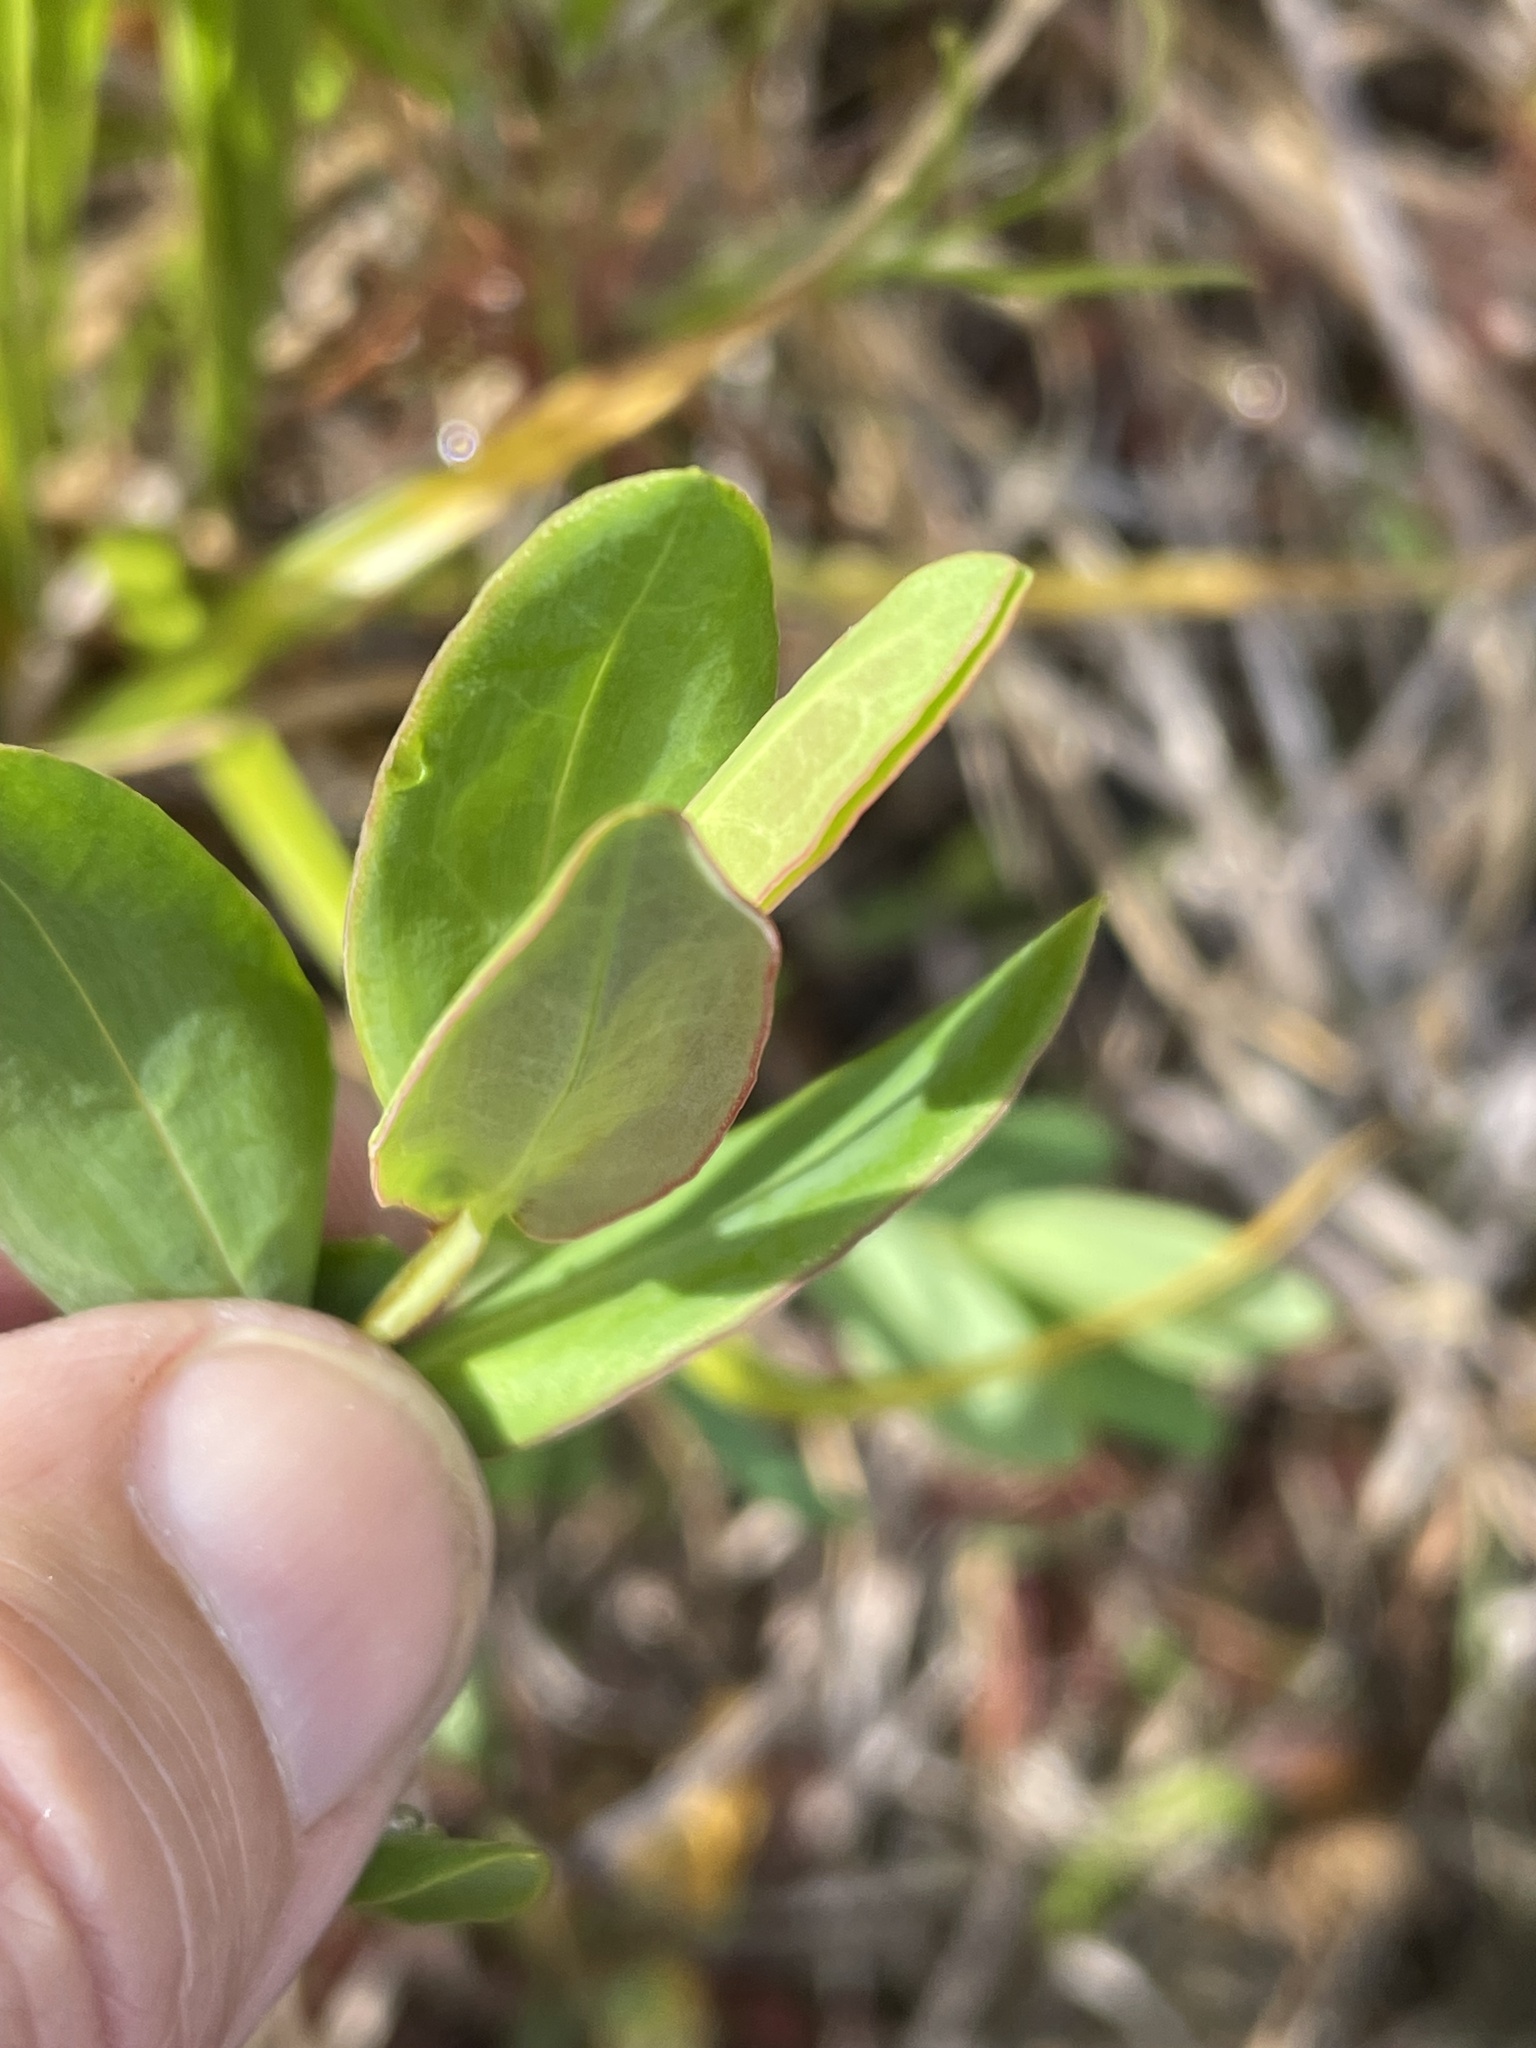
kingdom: Plantae
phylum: Tracheophyta
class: Magnoliopsida
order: Malpighiales
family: Hypericaceae
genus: Hypericum
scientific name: Hypericum crux-andreae
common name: St.-peter's-wort
